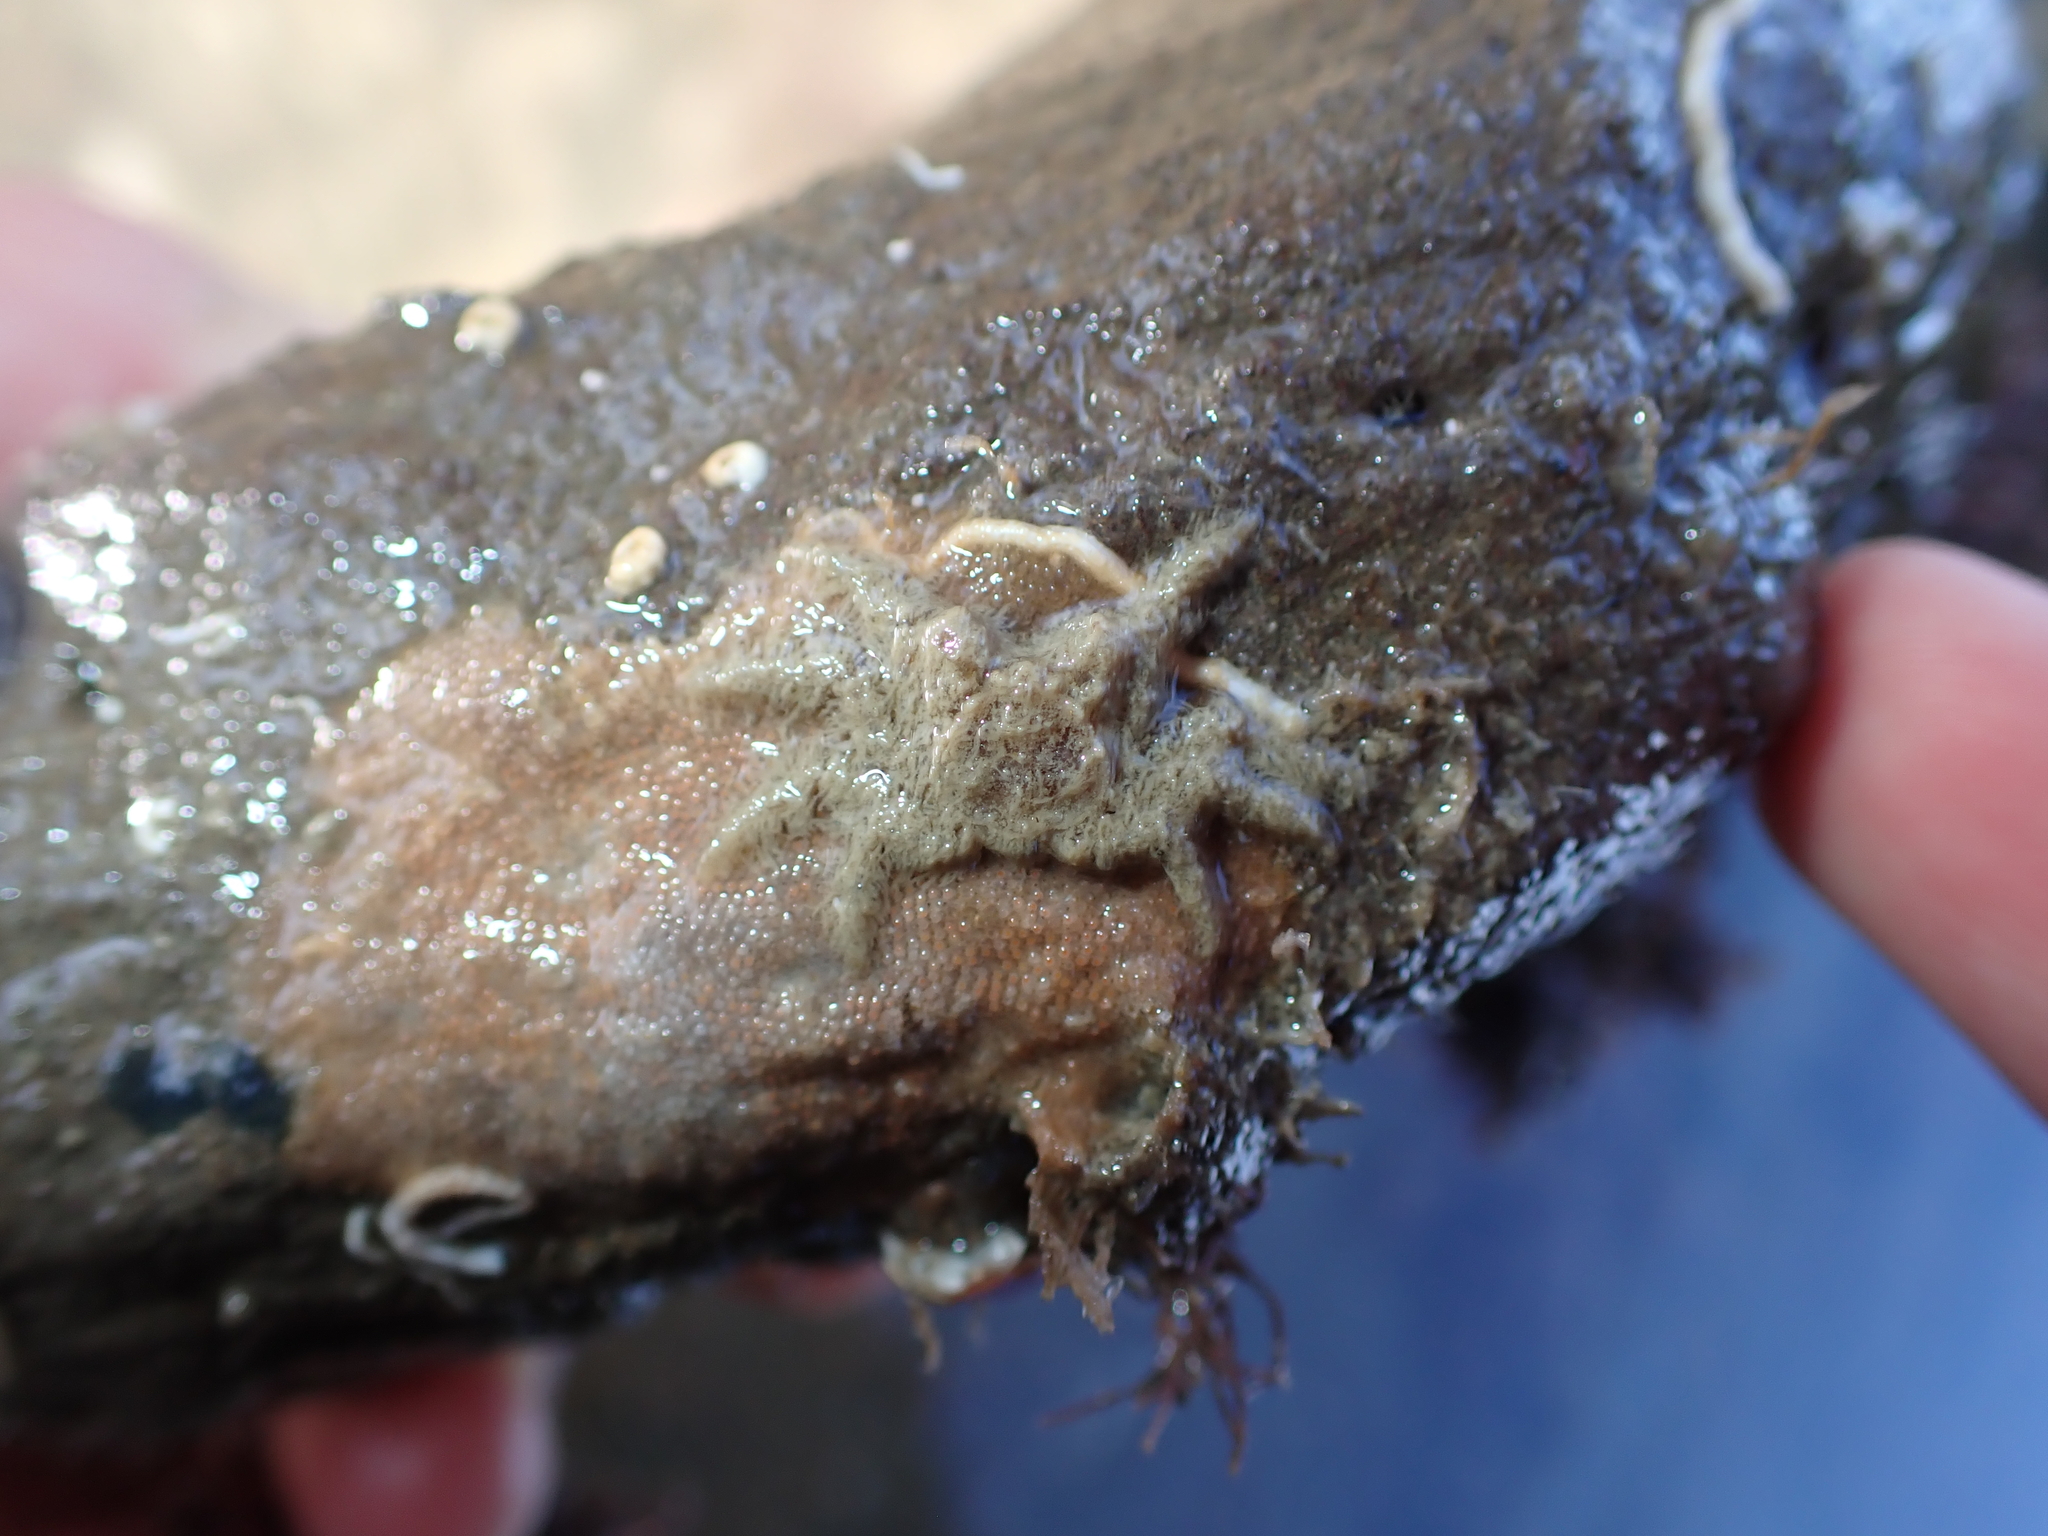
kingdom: Animalia
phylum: Arthropoda
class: Malacostraca
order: Decapoda
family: Hymenosomatidae
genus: Neohymenicus
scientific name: Neohymenicus pubescens
